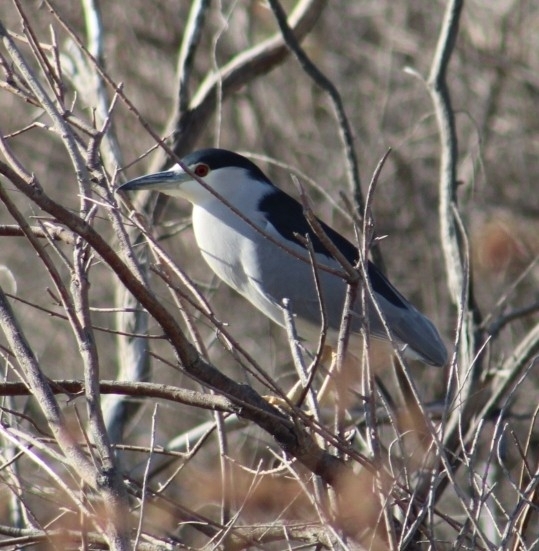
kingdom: Animalia
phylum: Chordata
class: Aves
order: Pelecaniformes
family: Ardeidae
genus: Nycticorax
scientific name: Nycticorax nycticorax
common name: Black-crowned night heron
